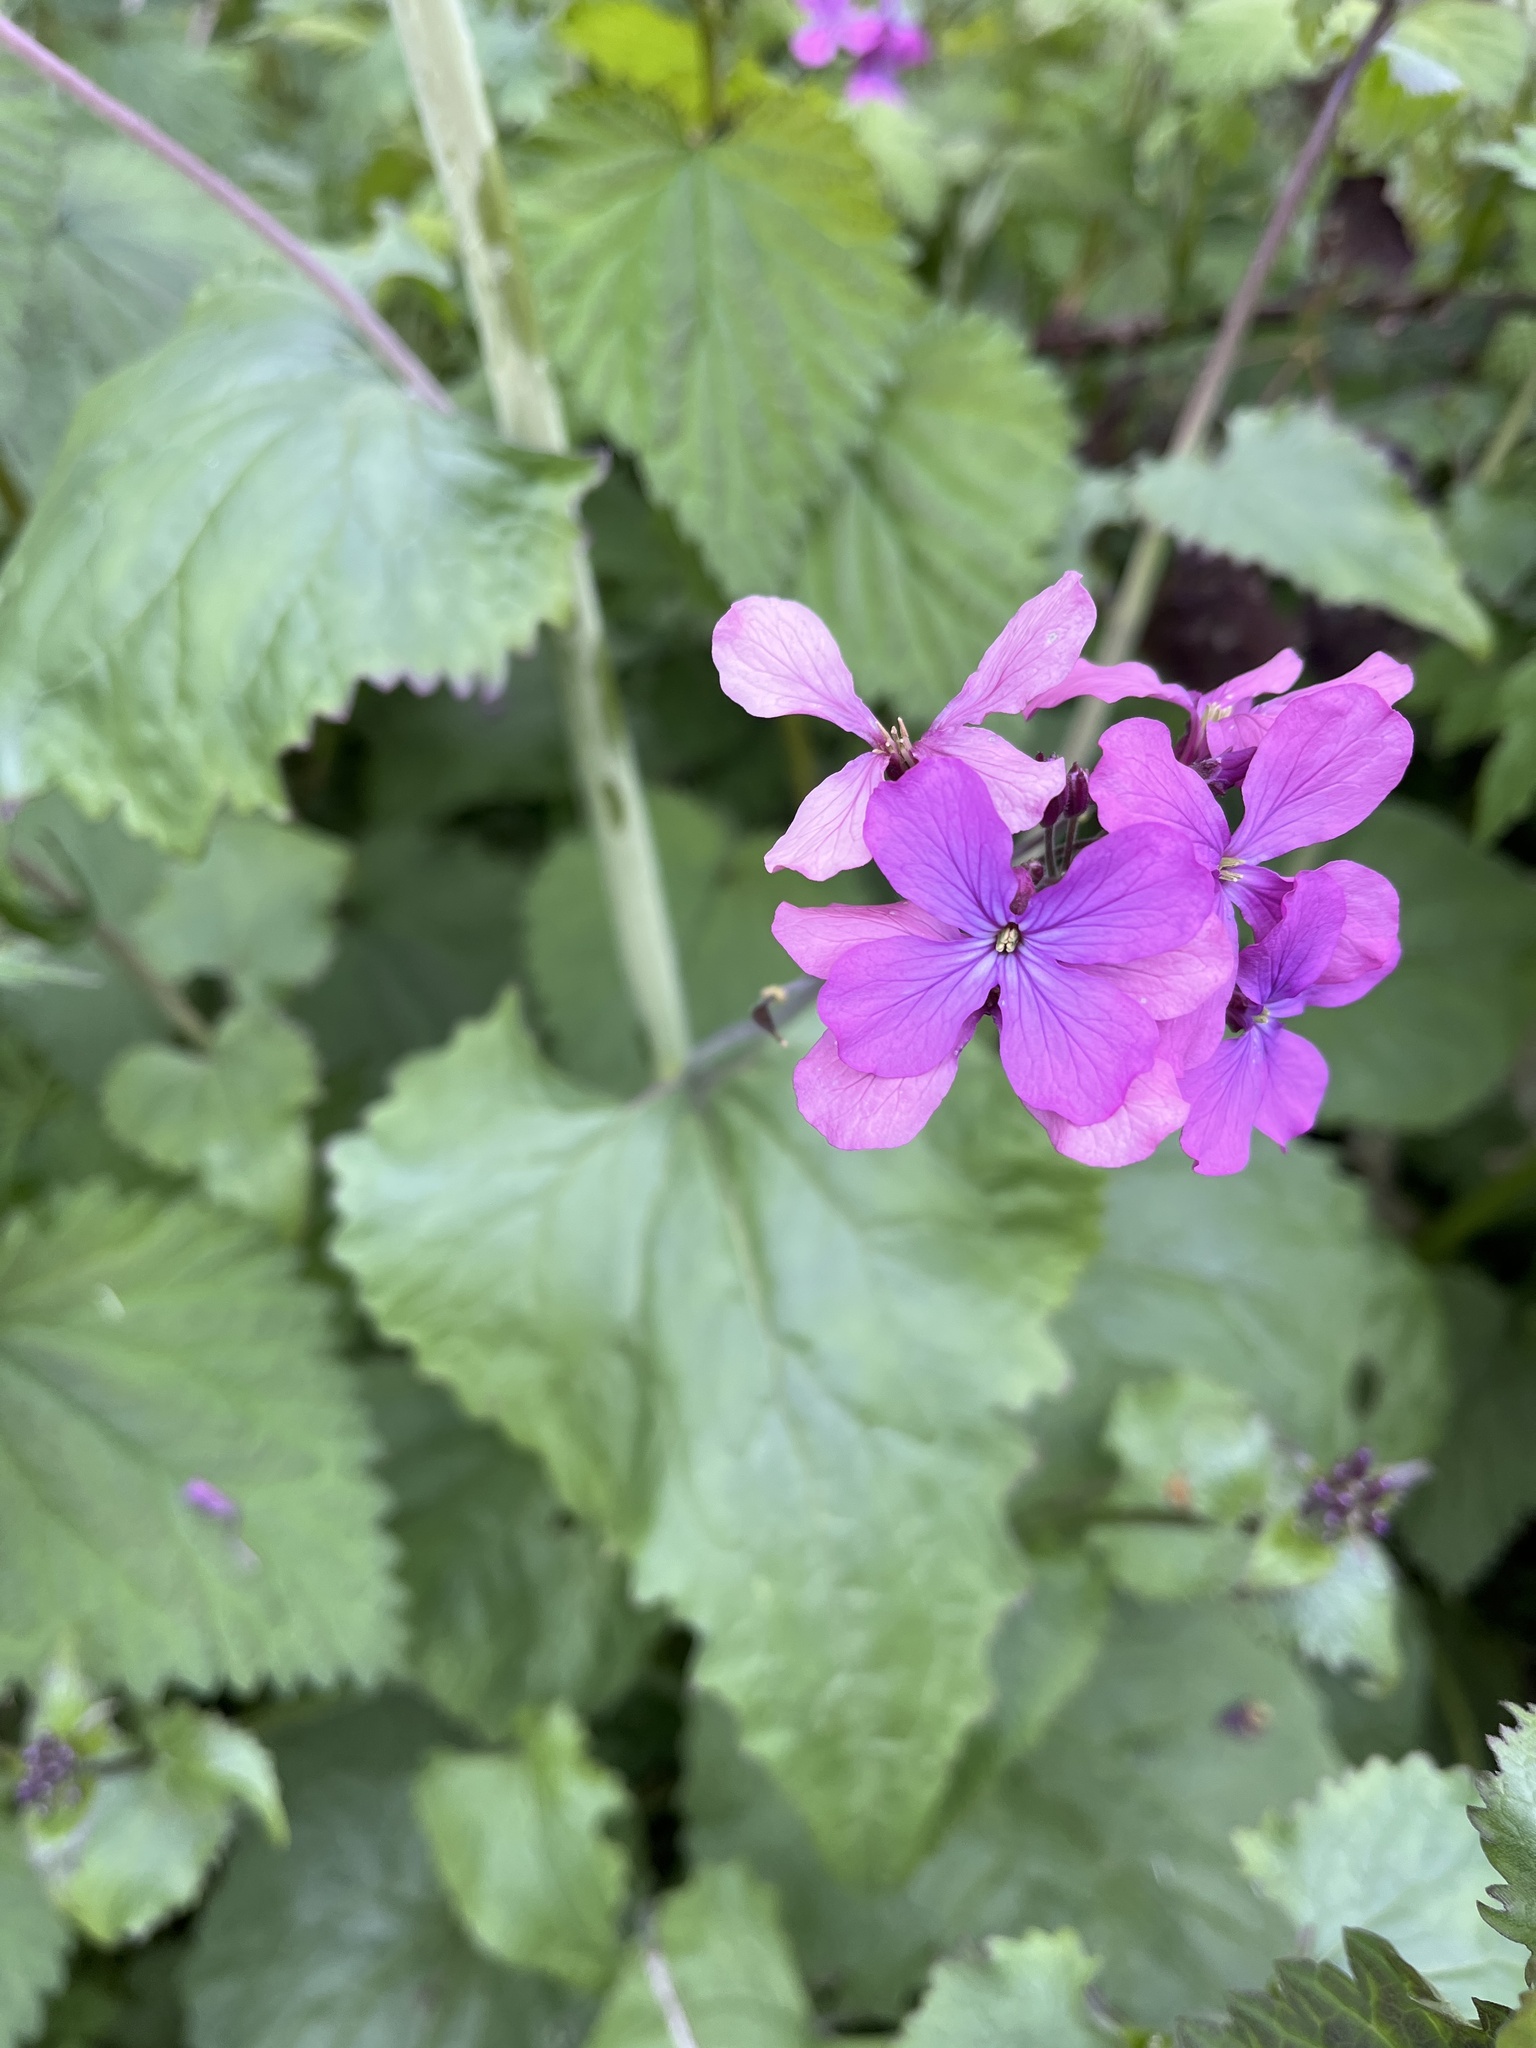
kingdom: Plantae
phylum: Tracheophyta
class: Magnoliopsida
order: Brassicales
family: Brassicaceae
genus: Lunaria
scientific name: Lunaria annua
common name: Honesty
